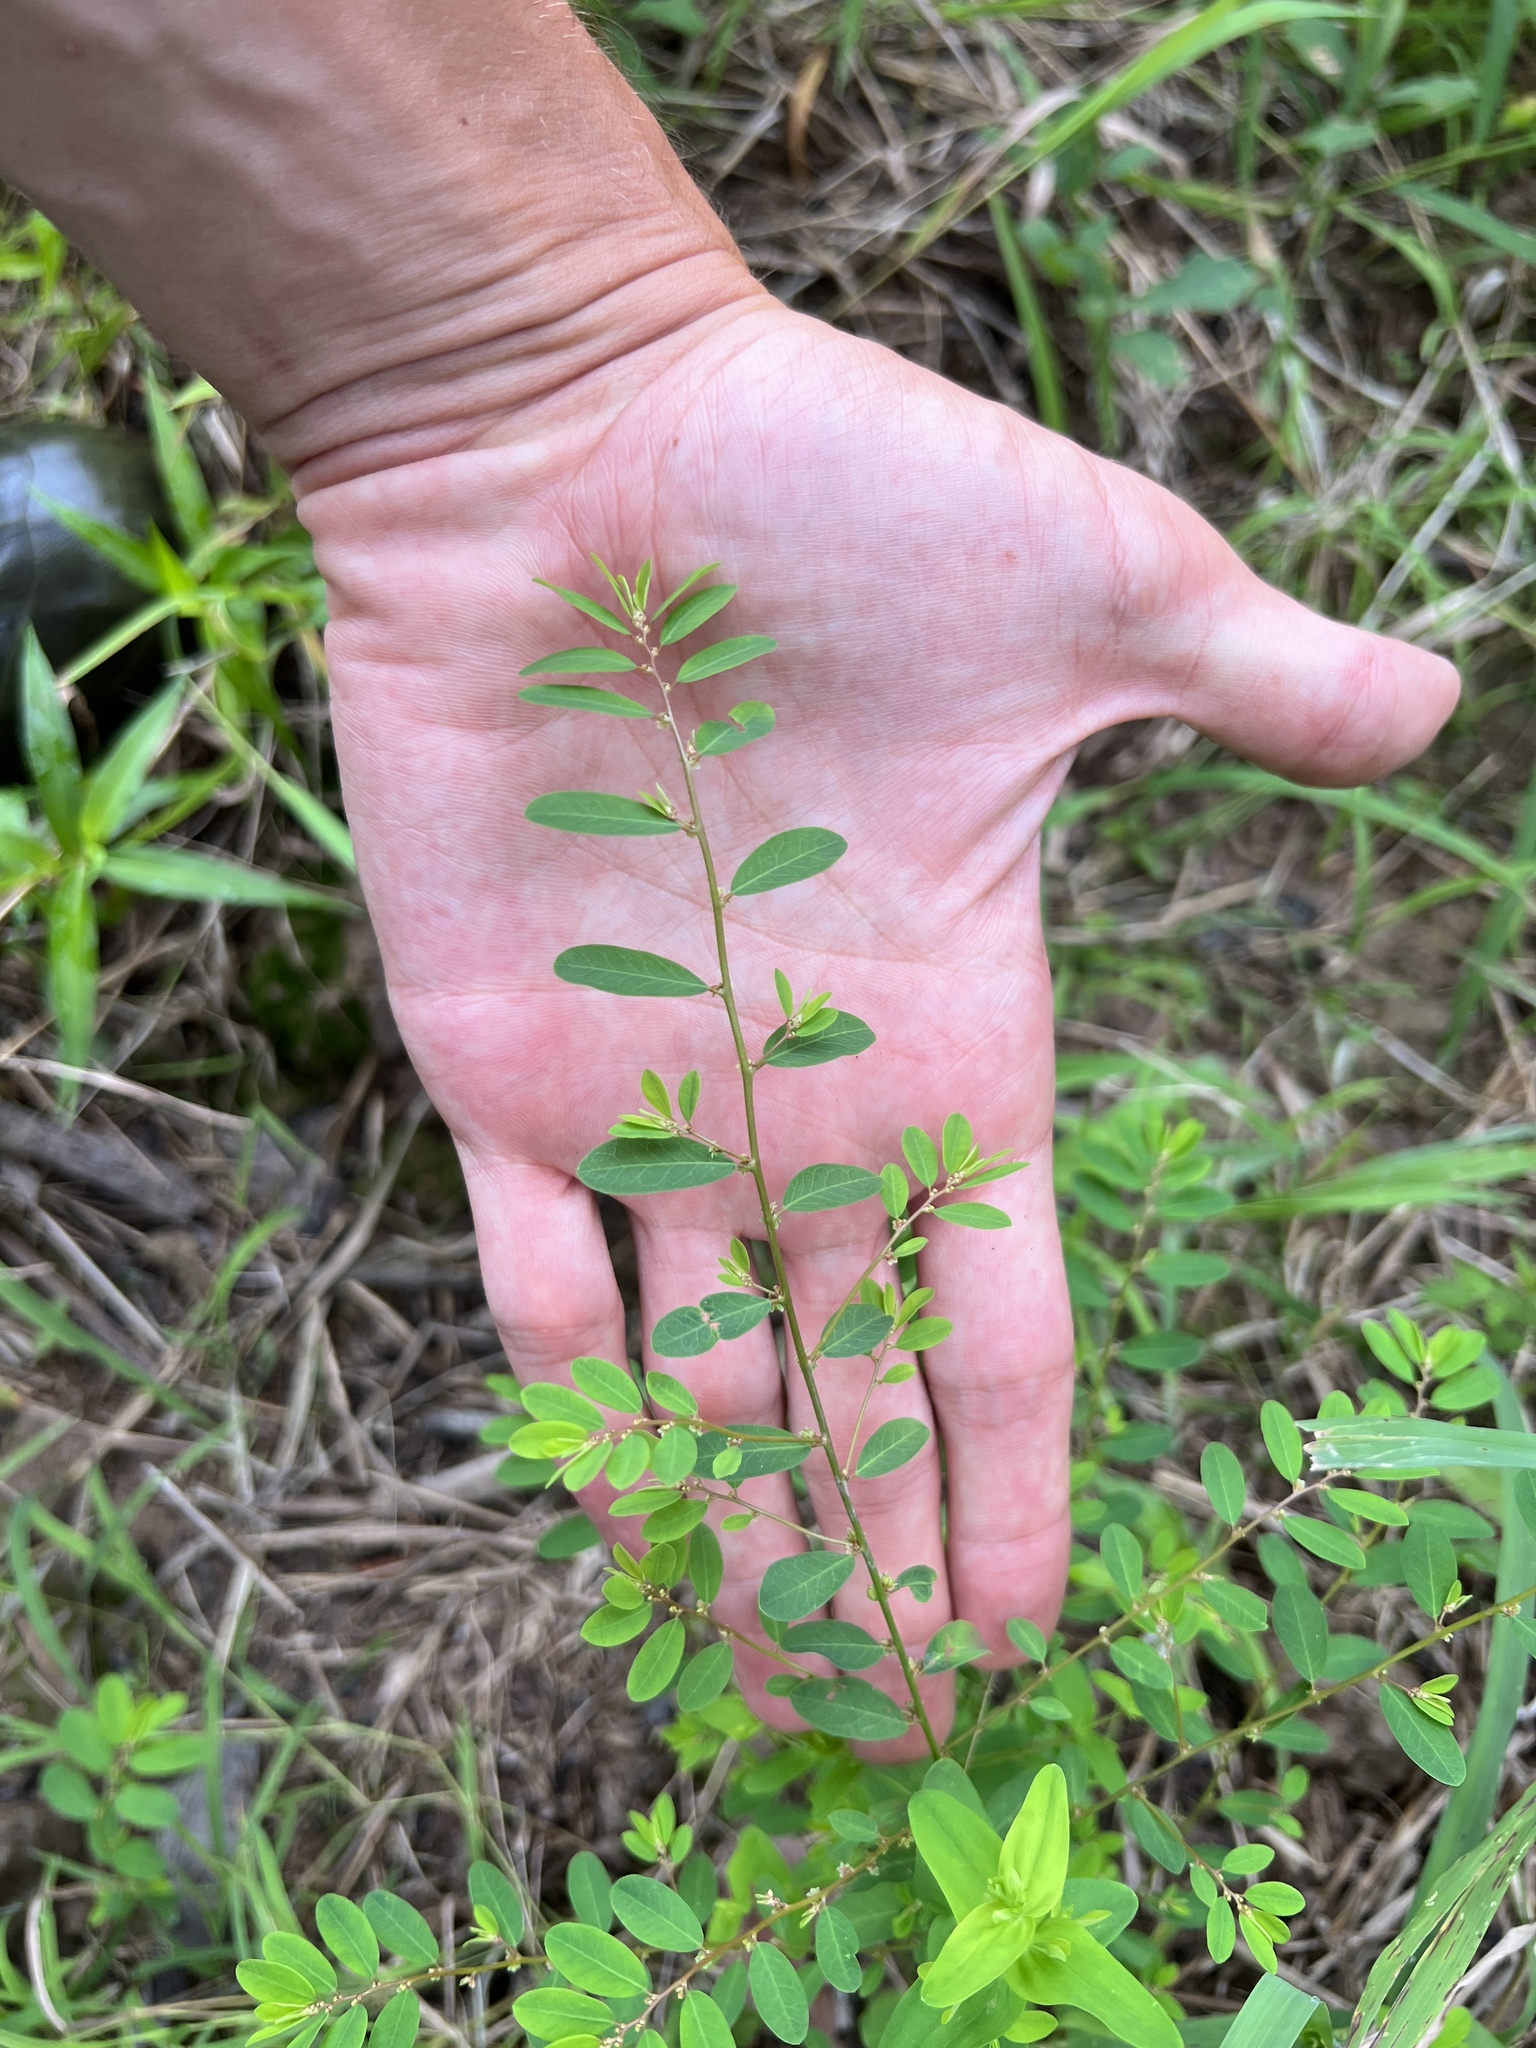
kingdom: Plantae
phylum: Tracheophyta
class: Magnoliopsida
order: Malpighiales
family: Phyllanthaceae
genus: Phyllanthus
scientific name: Phyllanthus caroliniensis
